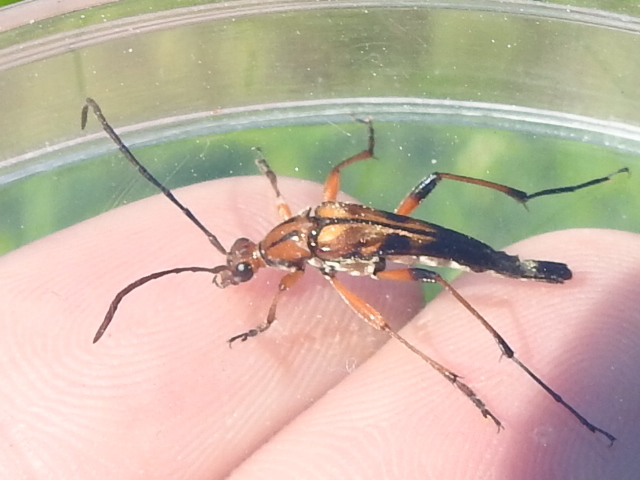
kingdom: Animalia
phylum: Arthropoda
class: Insecta
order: Coleoptera
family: Cerambycidae
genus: Strangalia
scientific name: Strangalia famelica
